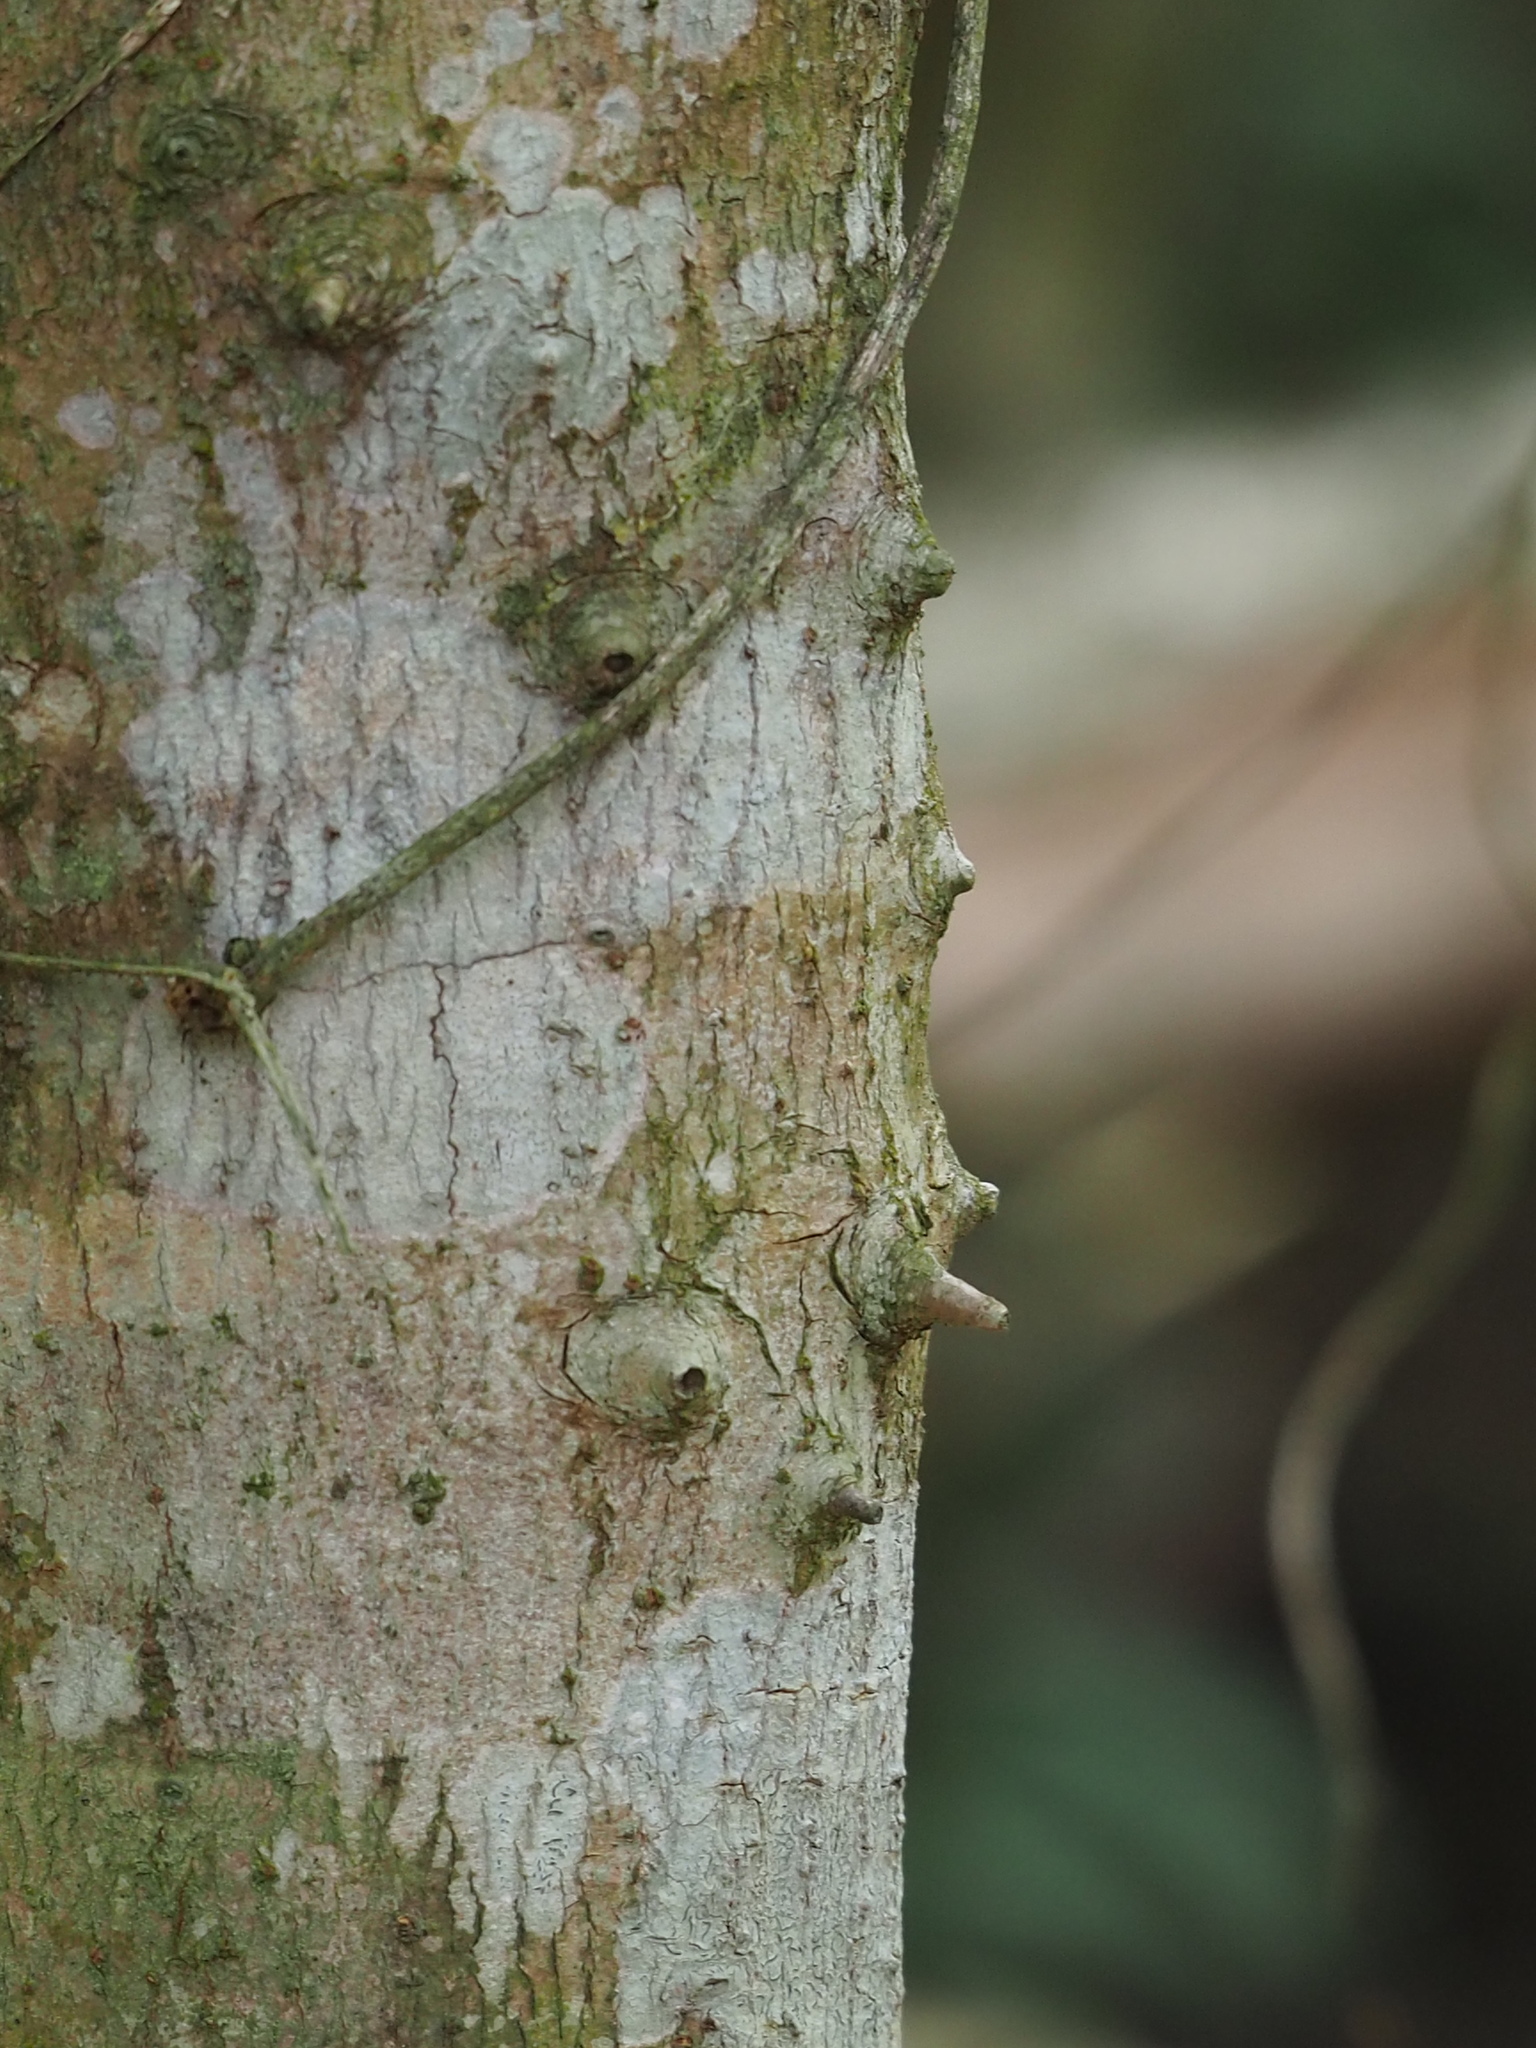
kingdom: Plantae
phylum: Tracheophyta
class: Magnoliopsida
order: Malpighiales
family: Phyllanthaceae
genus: Bridelia
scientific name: Bridelia balansae
